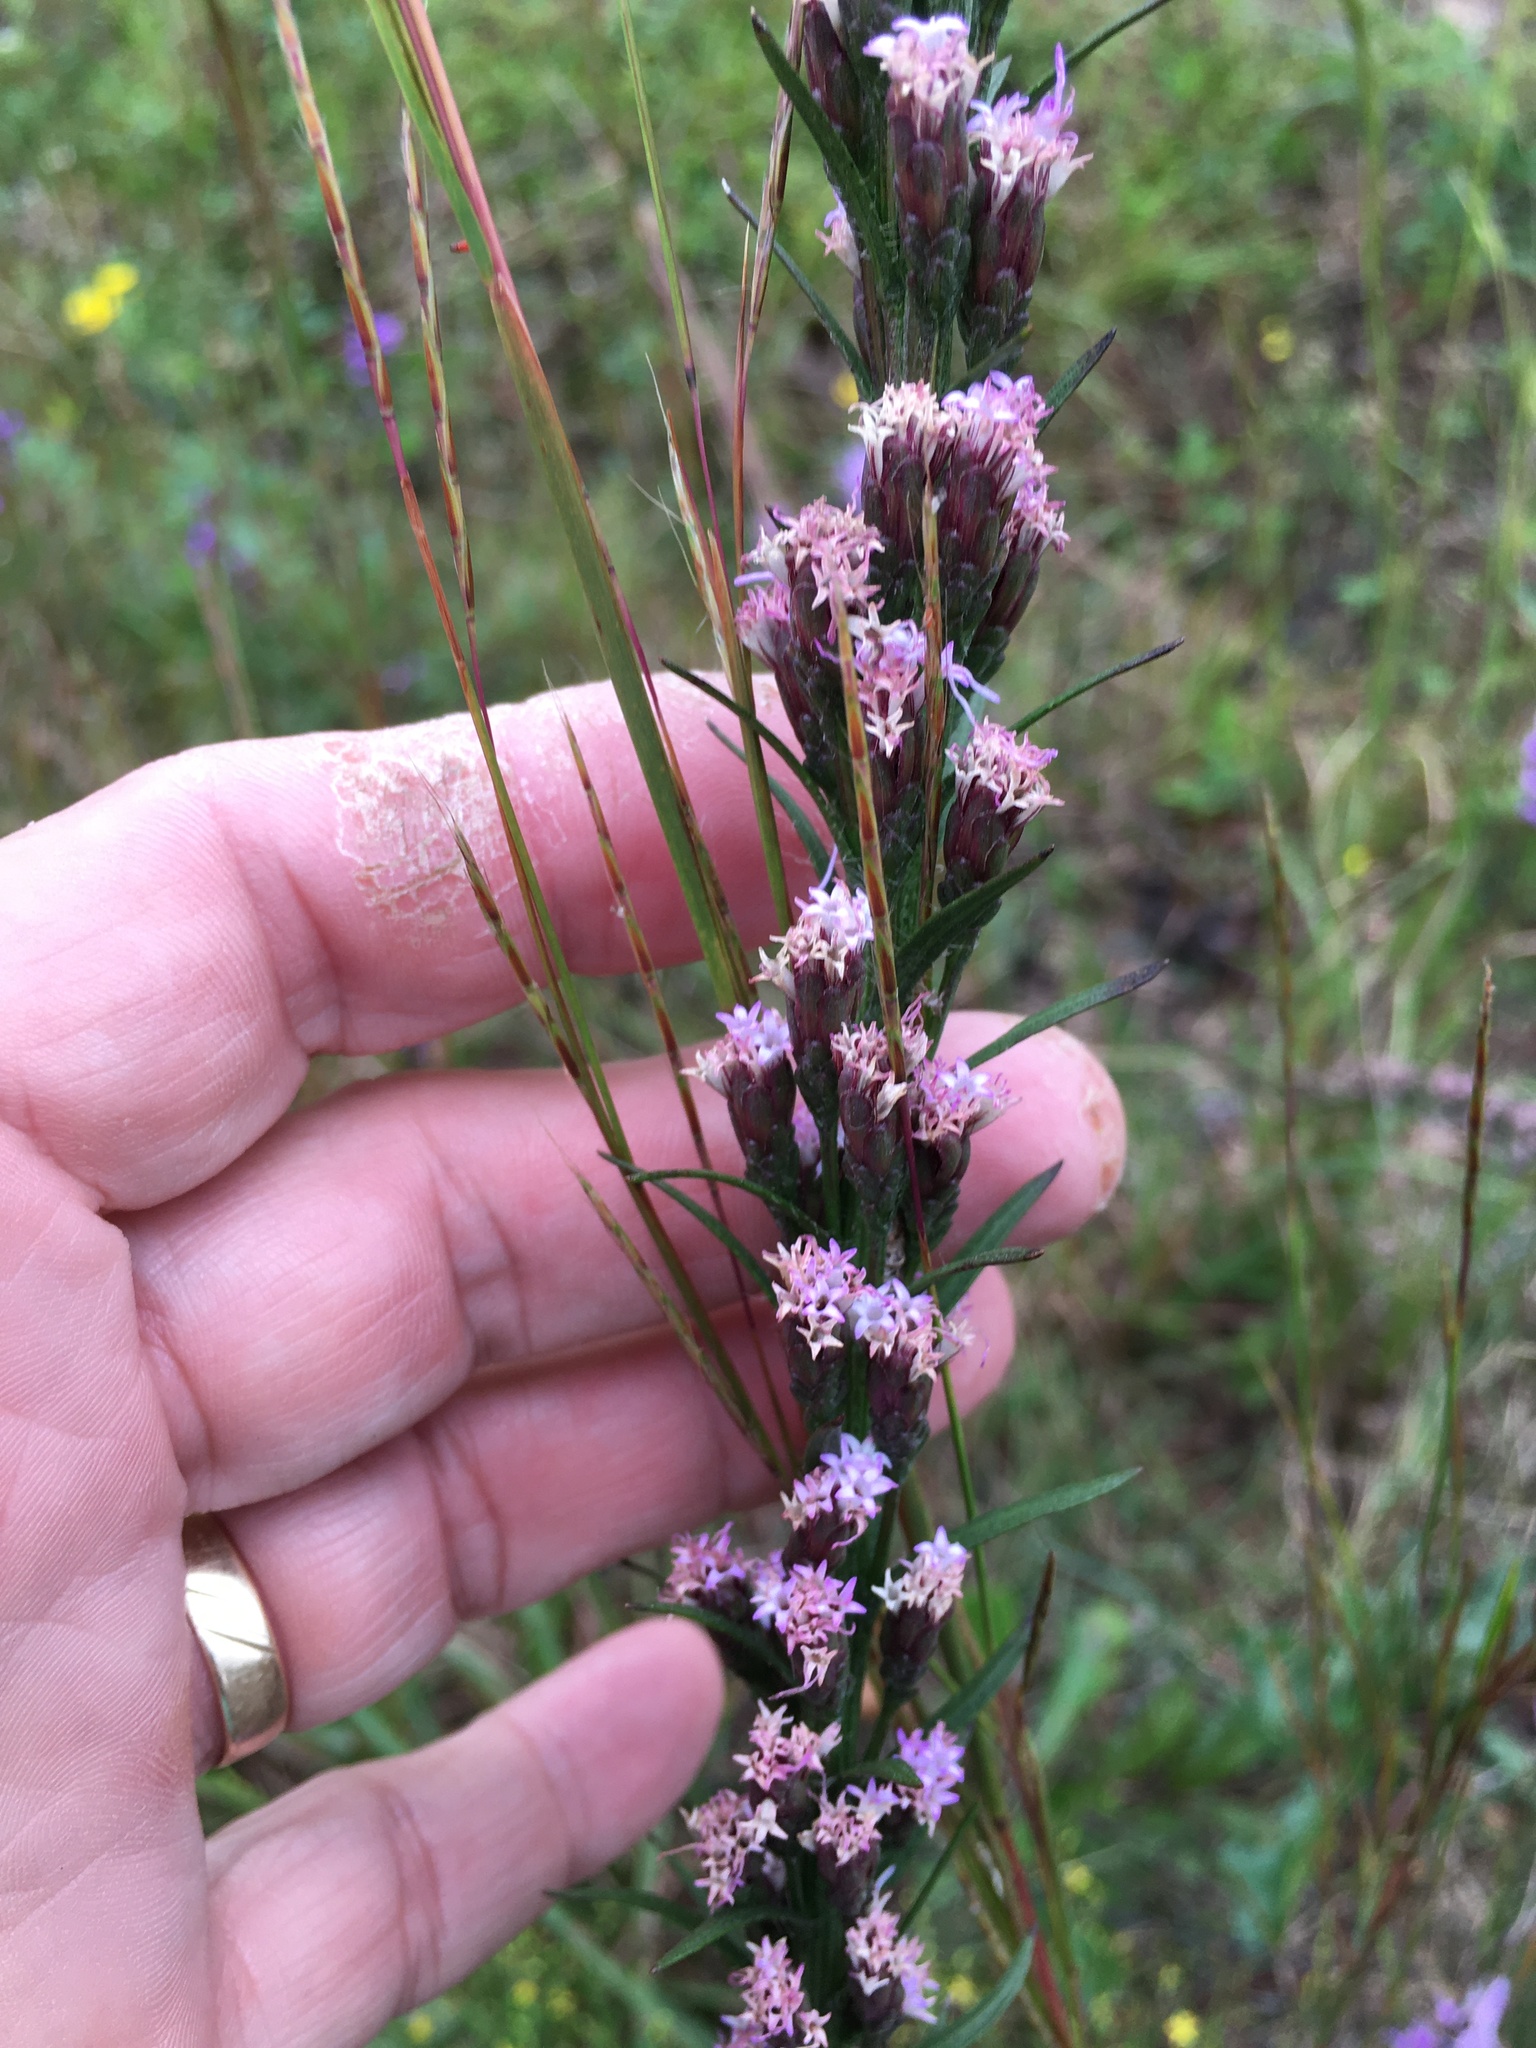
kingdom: Plantae
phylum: Tracheophyta
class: Magnoliopsida
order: Asterales
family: Asteraceae
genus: Liatris
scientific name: Liatris pilosa
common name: Grass-leaf gayfeather
